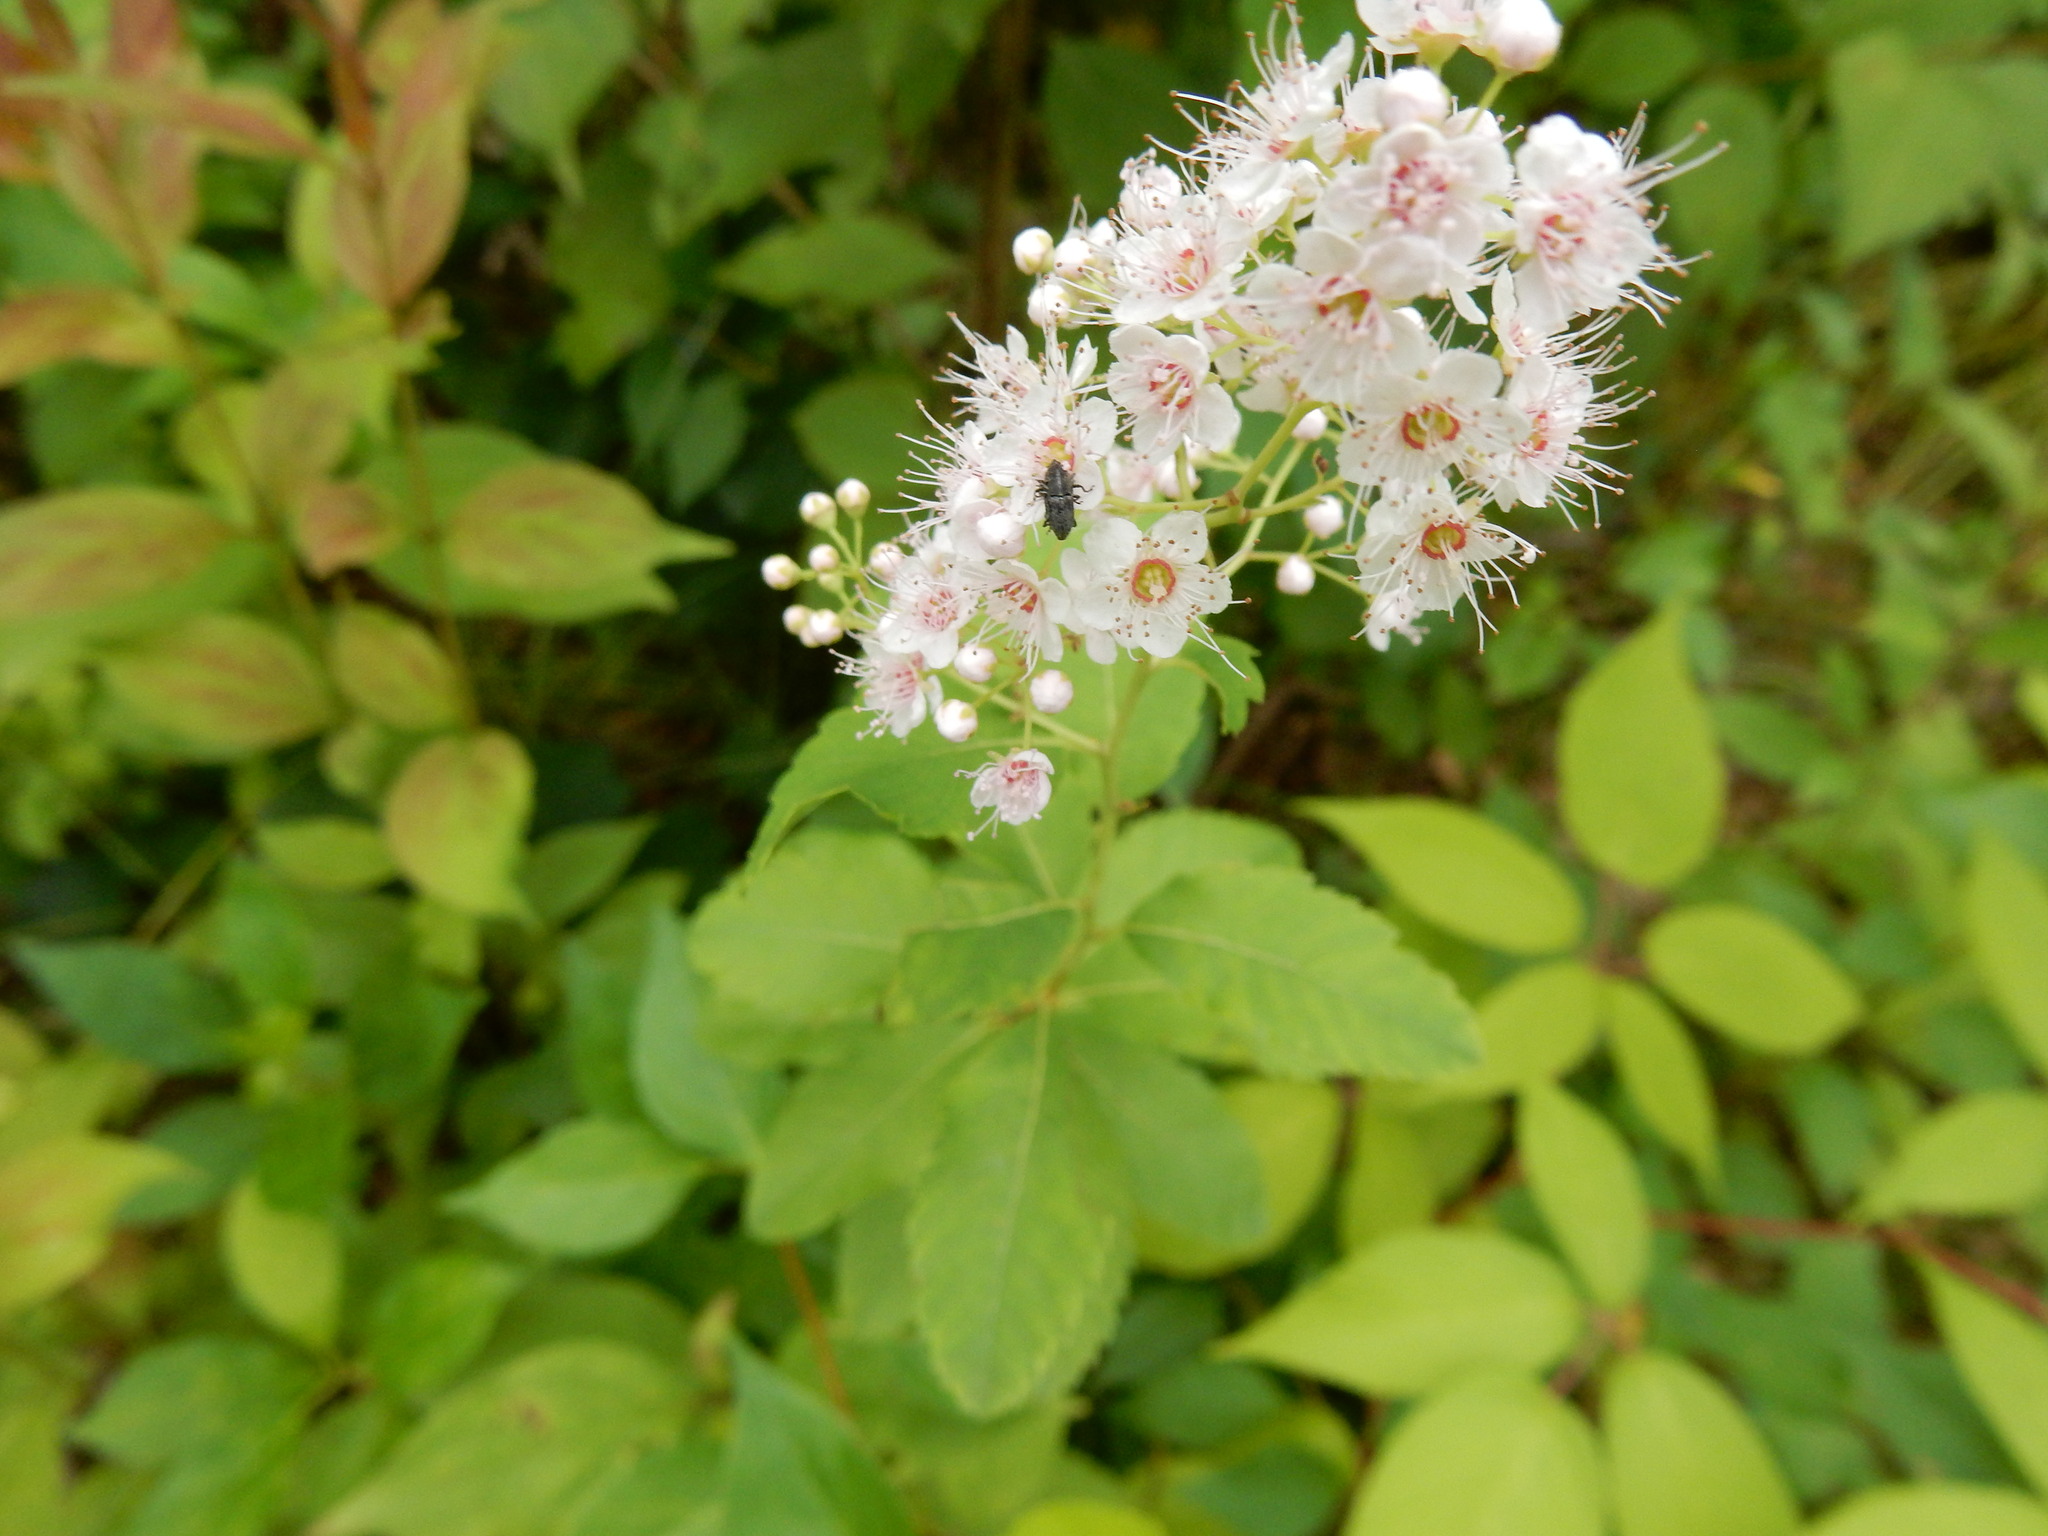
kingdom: Plantae
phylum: Tracheophyta
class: Magnoliopsida
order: Rosales
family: Rosaceae
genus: Spiraea
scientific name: Spiraea alba
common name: Pale bridewort
